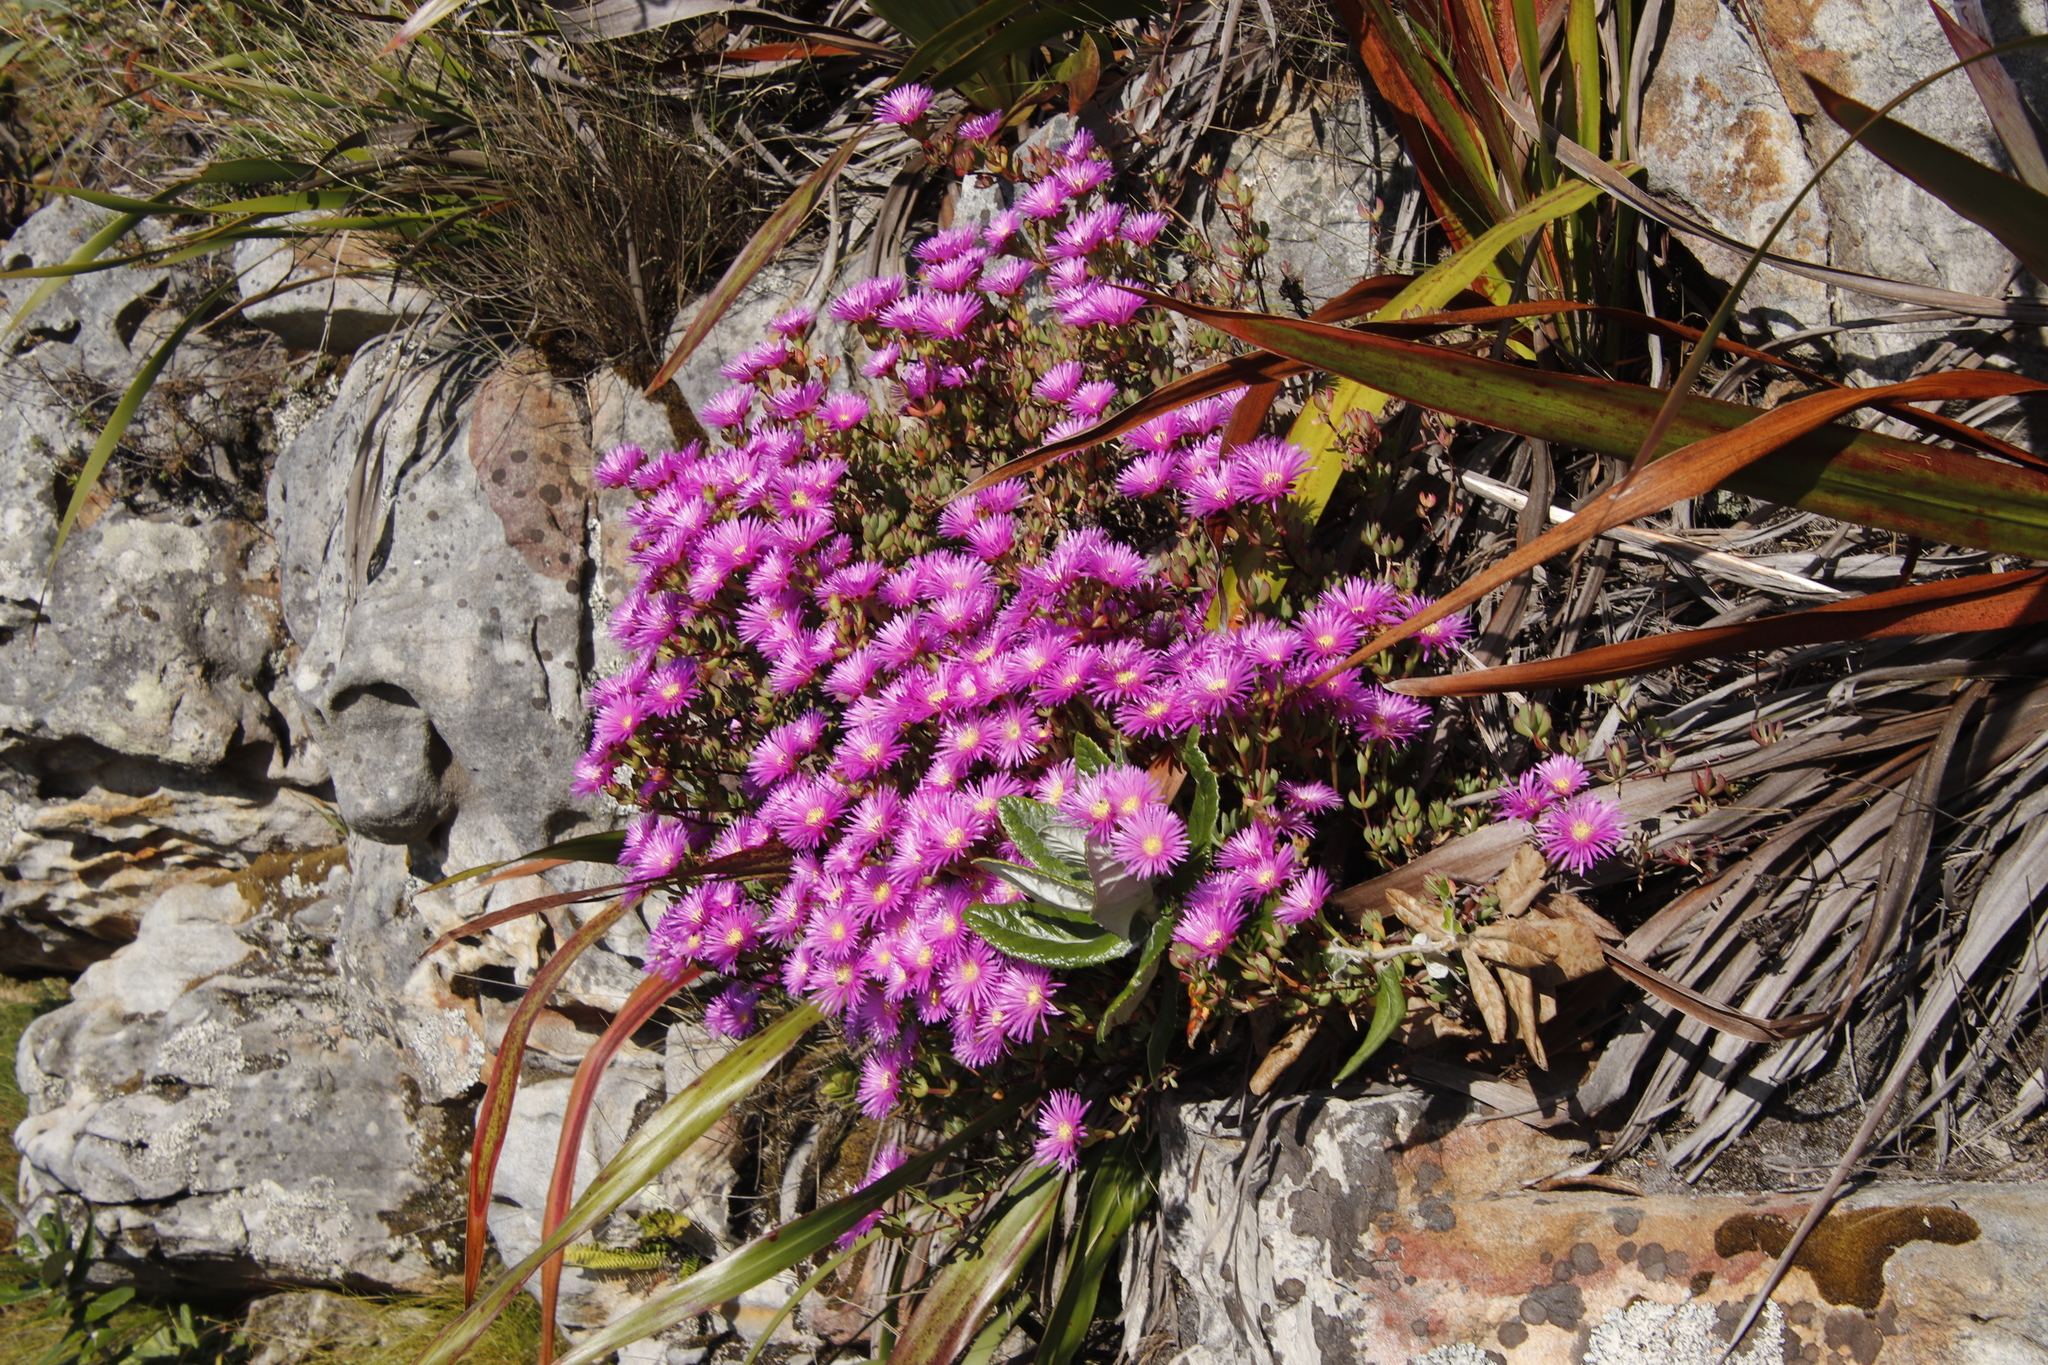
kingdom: Plantae
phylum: Tracheophyta
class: Magnoliopsida
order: Caryophyllales
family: Aizoaceae
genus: Oscularia
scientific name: Oscularia falciformis
